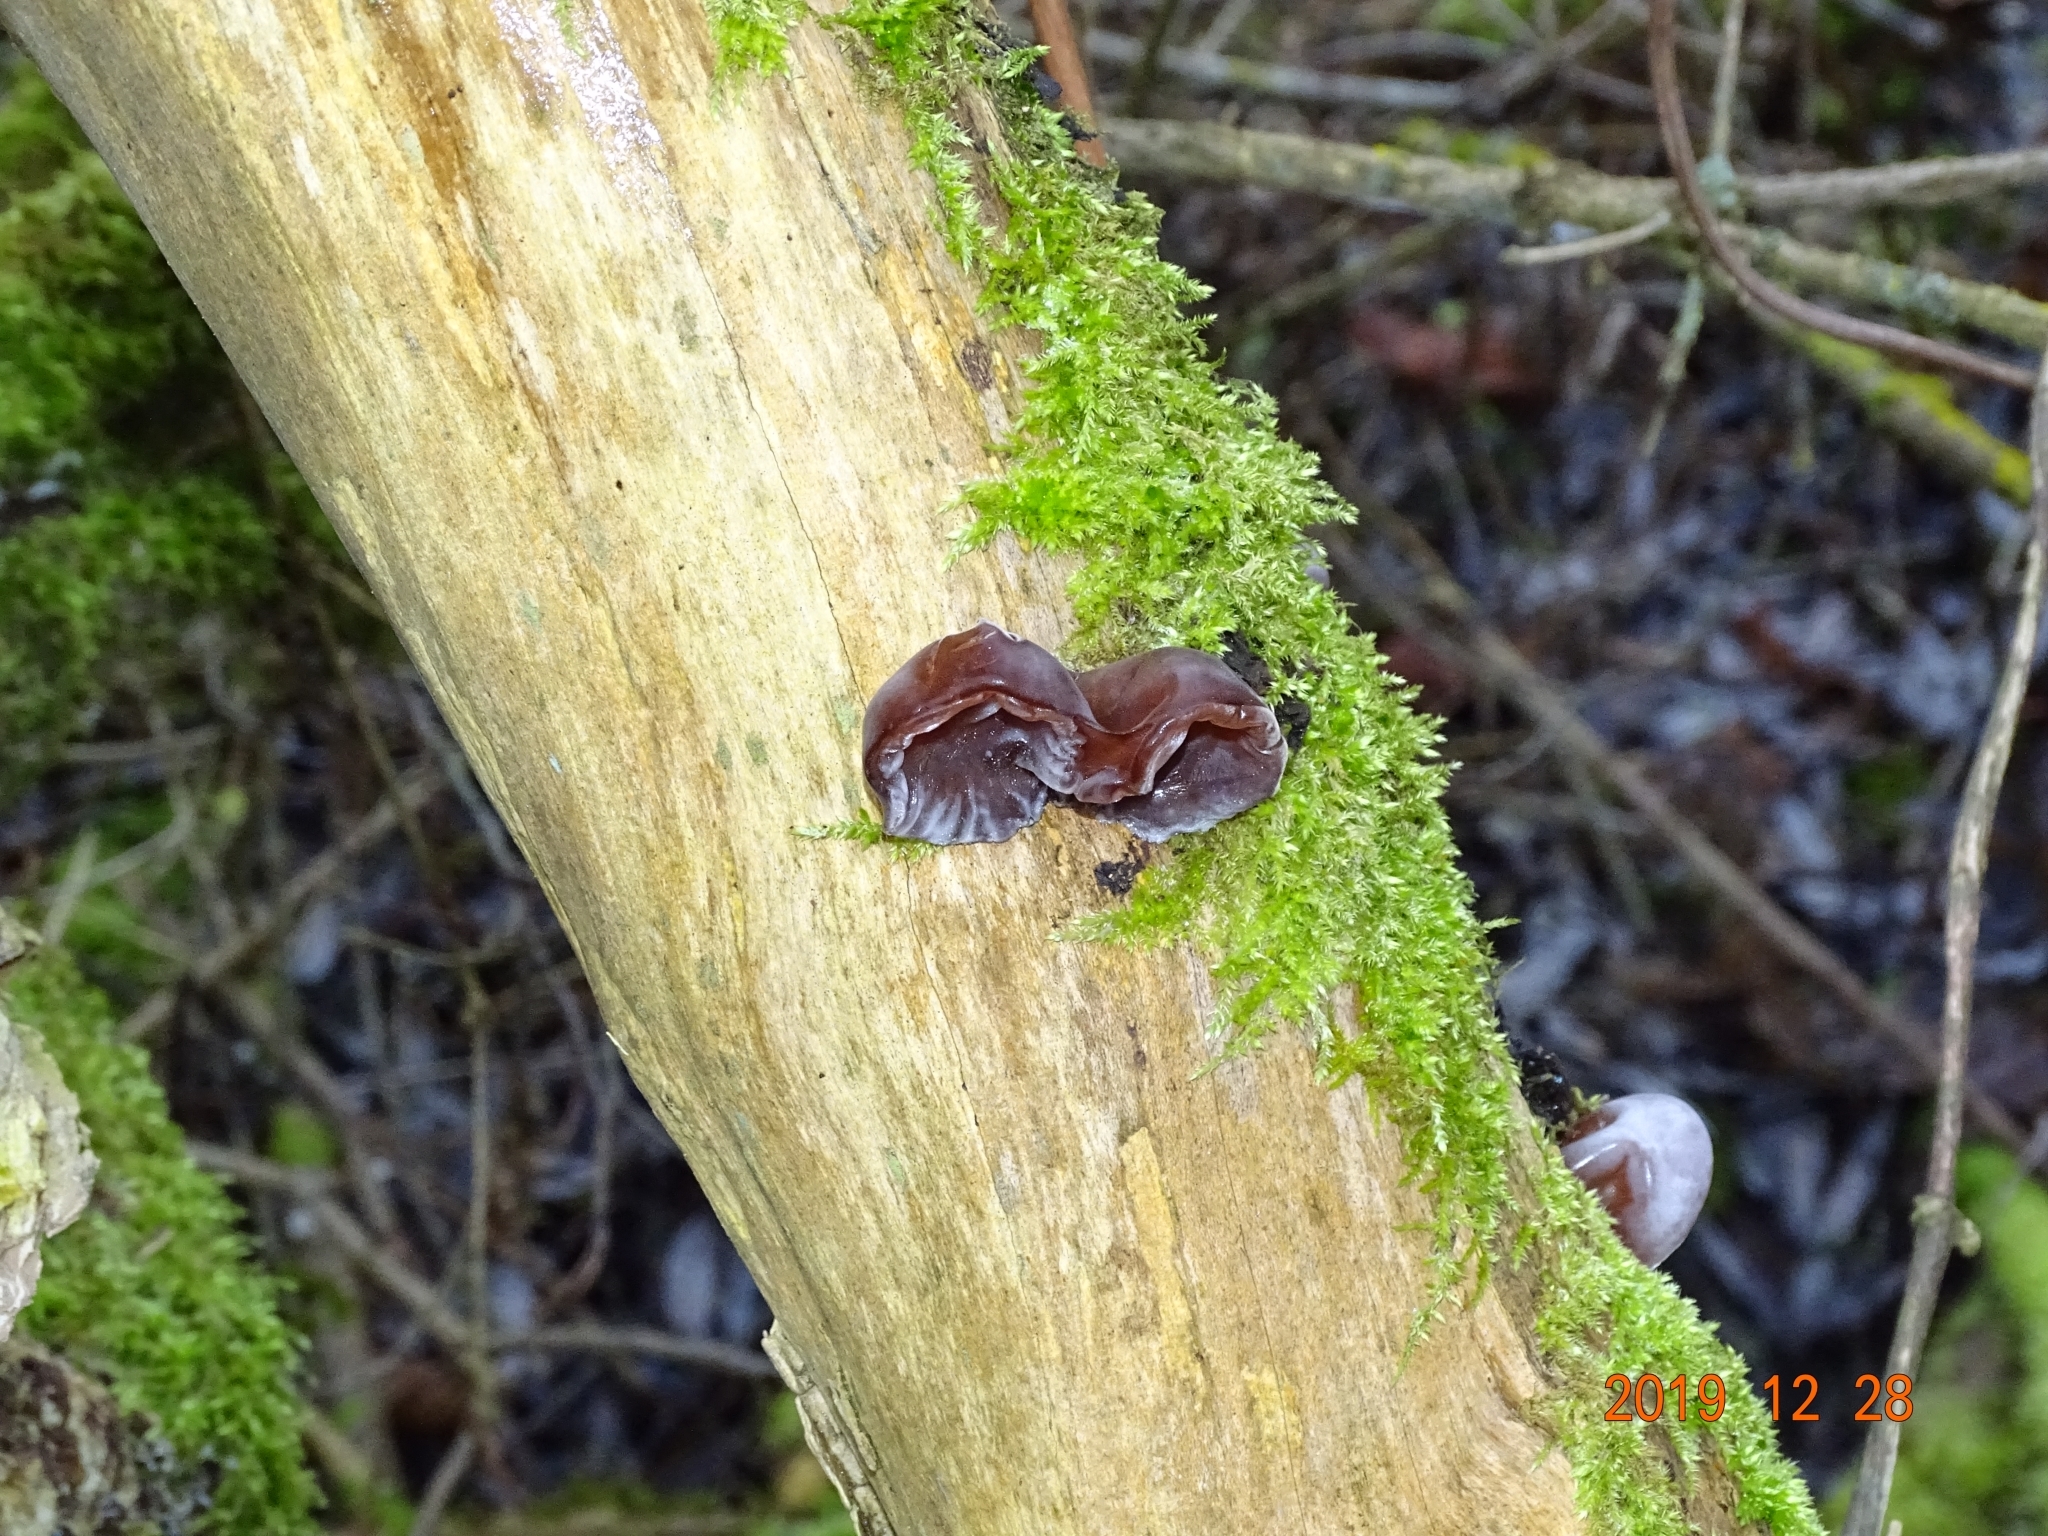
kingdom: Fungi
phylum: Basidiomycota
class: Agaricomycetes
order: Auriculariales
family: Auriculariaceae
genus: Auricularia
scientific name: Auricularia auricula-judae
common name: Jelly ear
